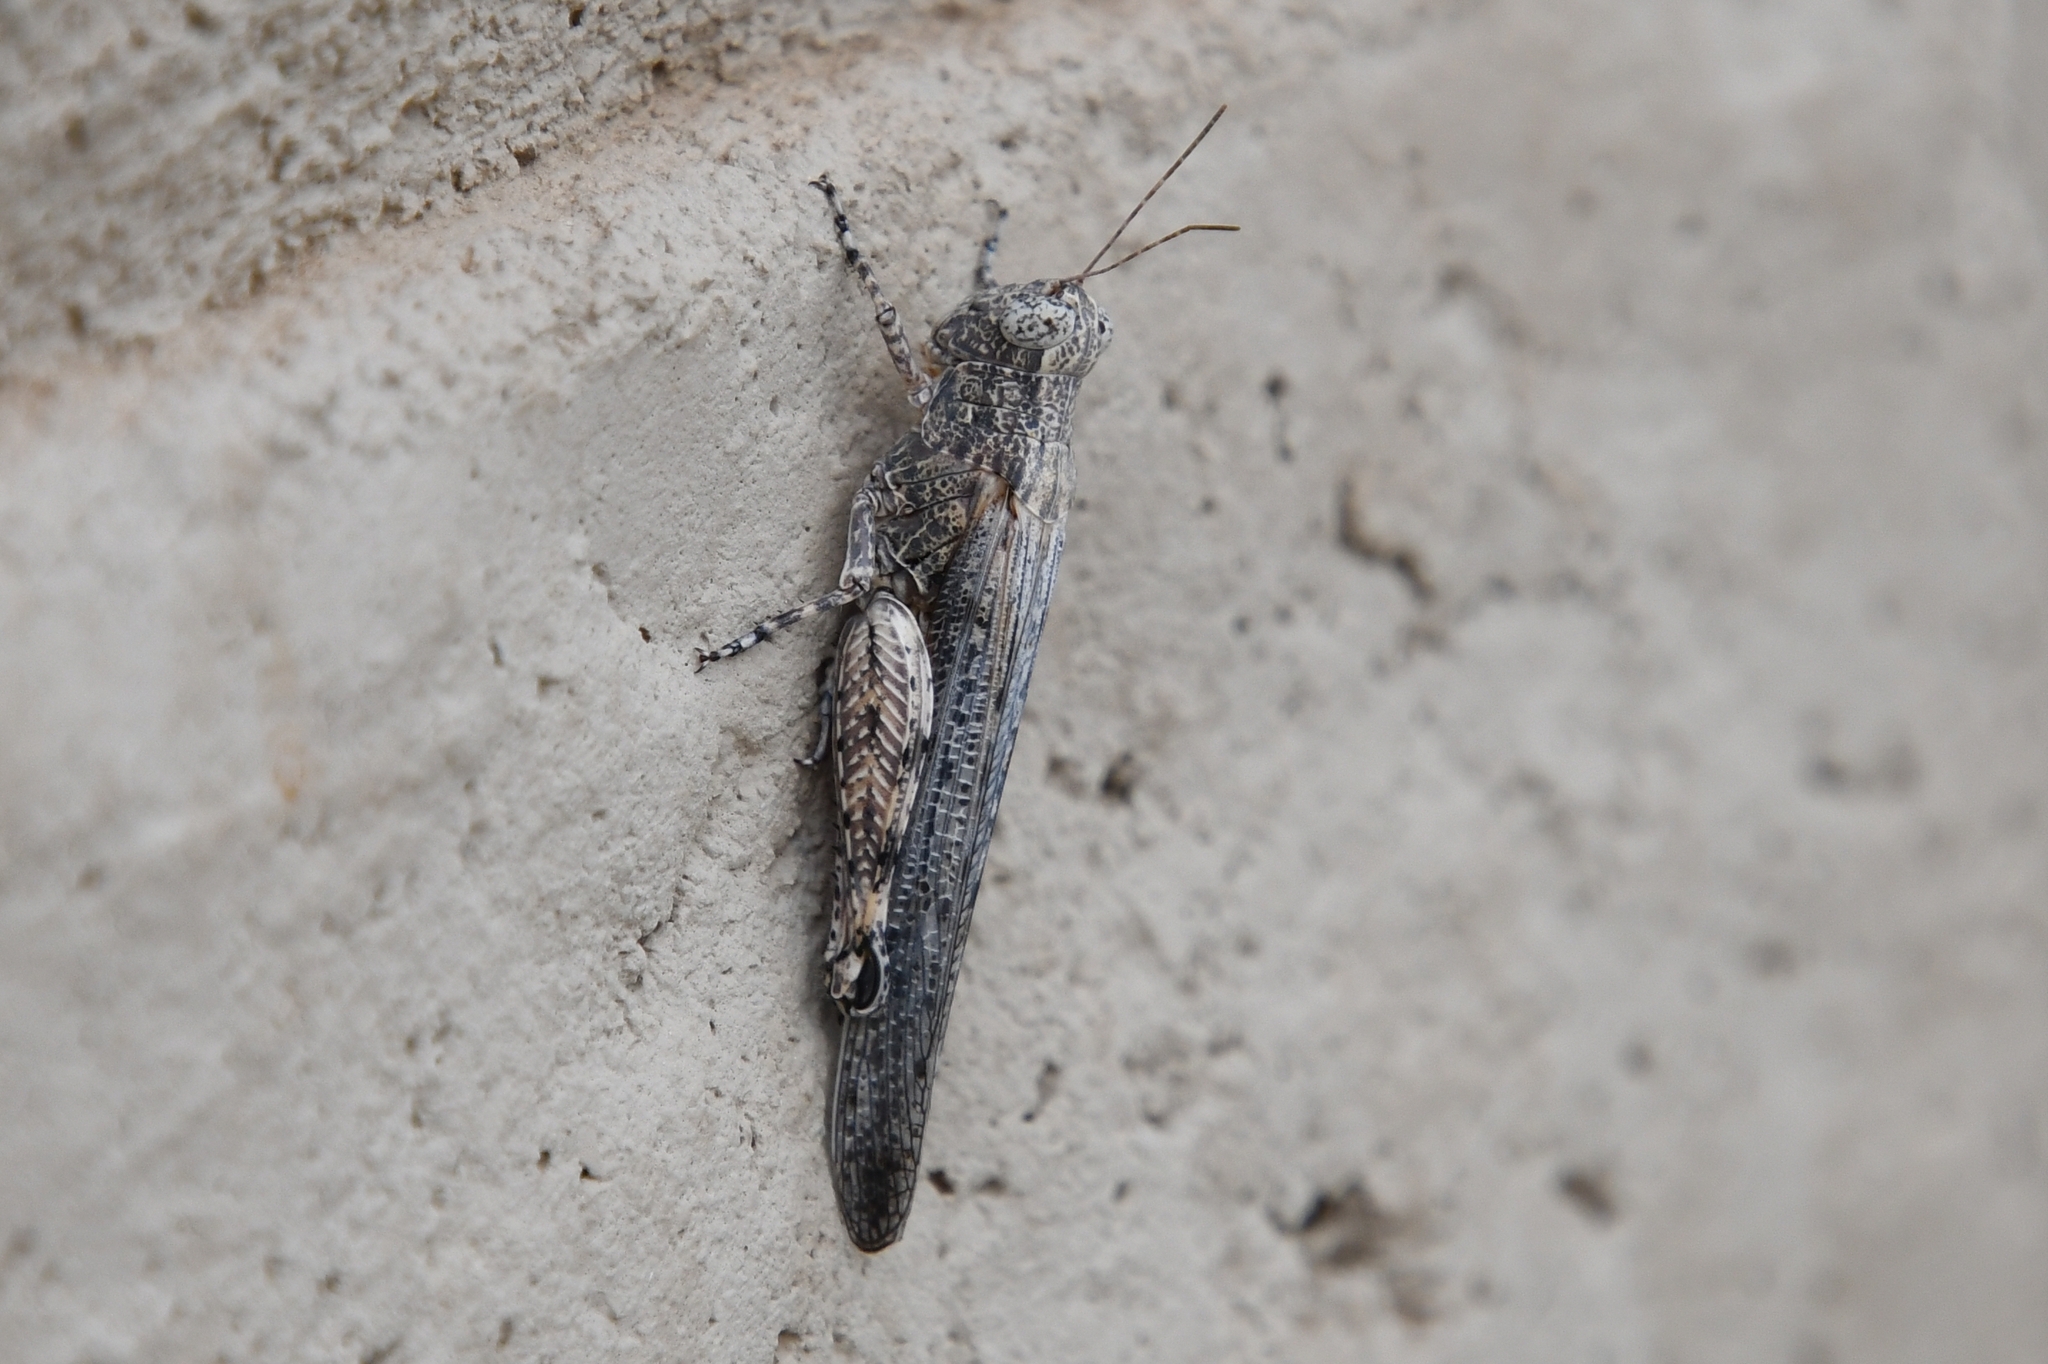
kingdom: Animalia
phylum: Arthropoda
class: Insecta
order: Orthoptera
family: Acrididae
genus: Ligurotettix
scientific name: Ligurotettix coquilletti
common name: Desert clicker grasshopper
